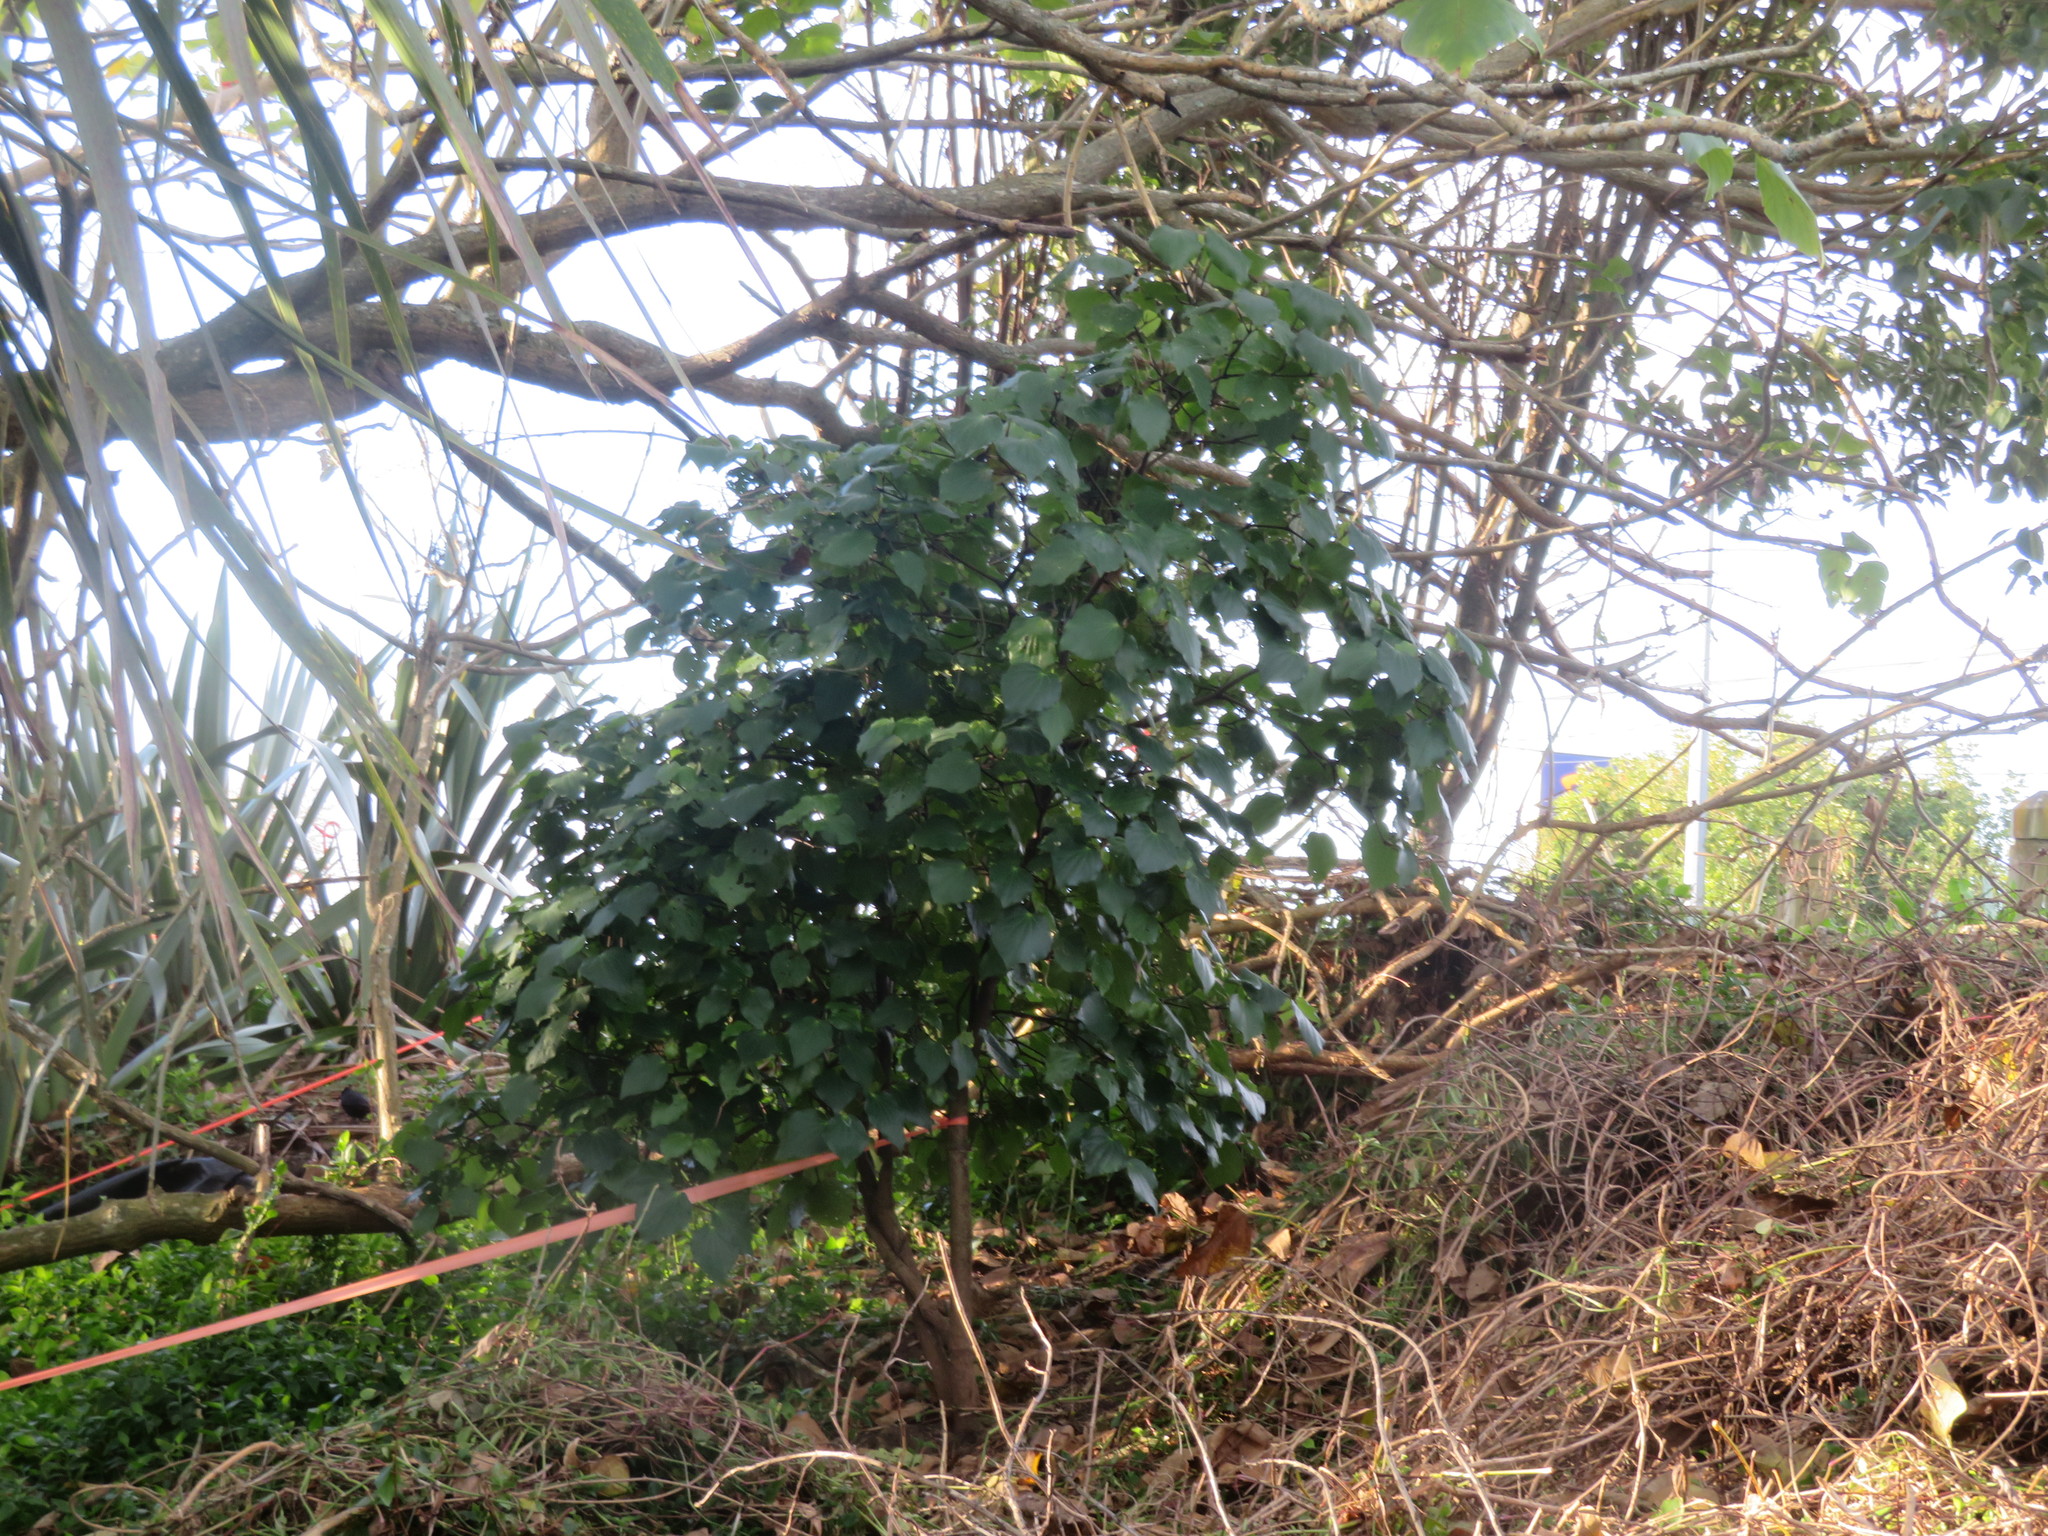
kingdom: Plantae
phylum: Tracheophyta
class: Magnoliopsida
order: Piperales
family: Piperaceae
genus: Macropiper
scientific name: Macropiper excelsum
